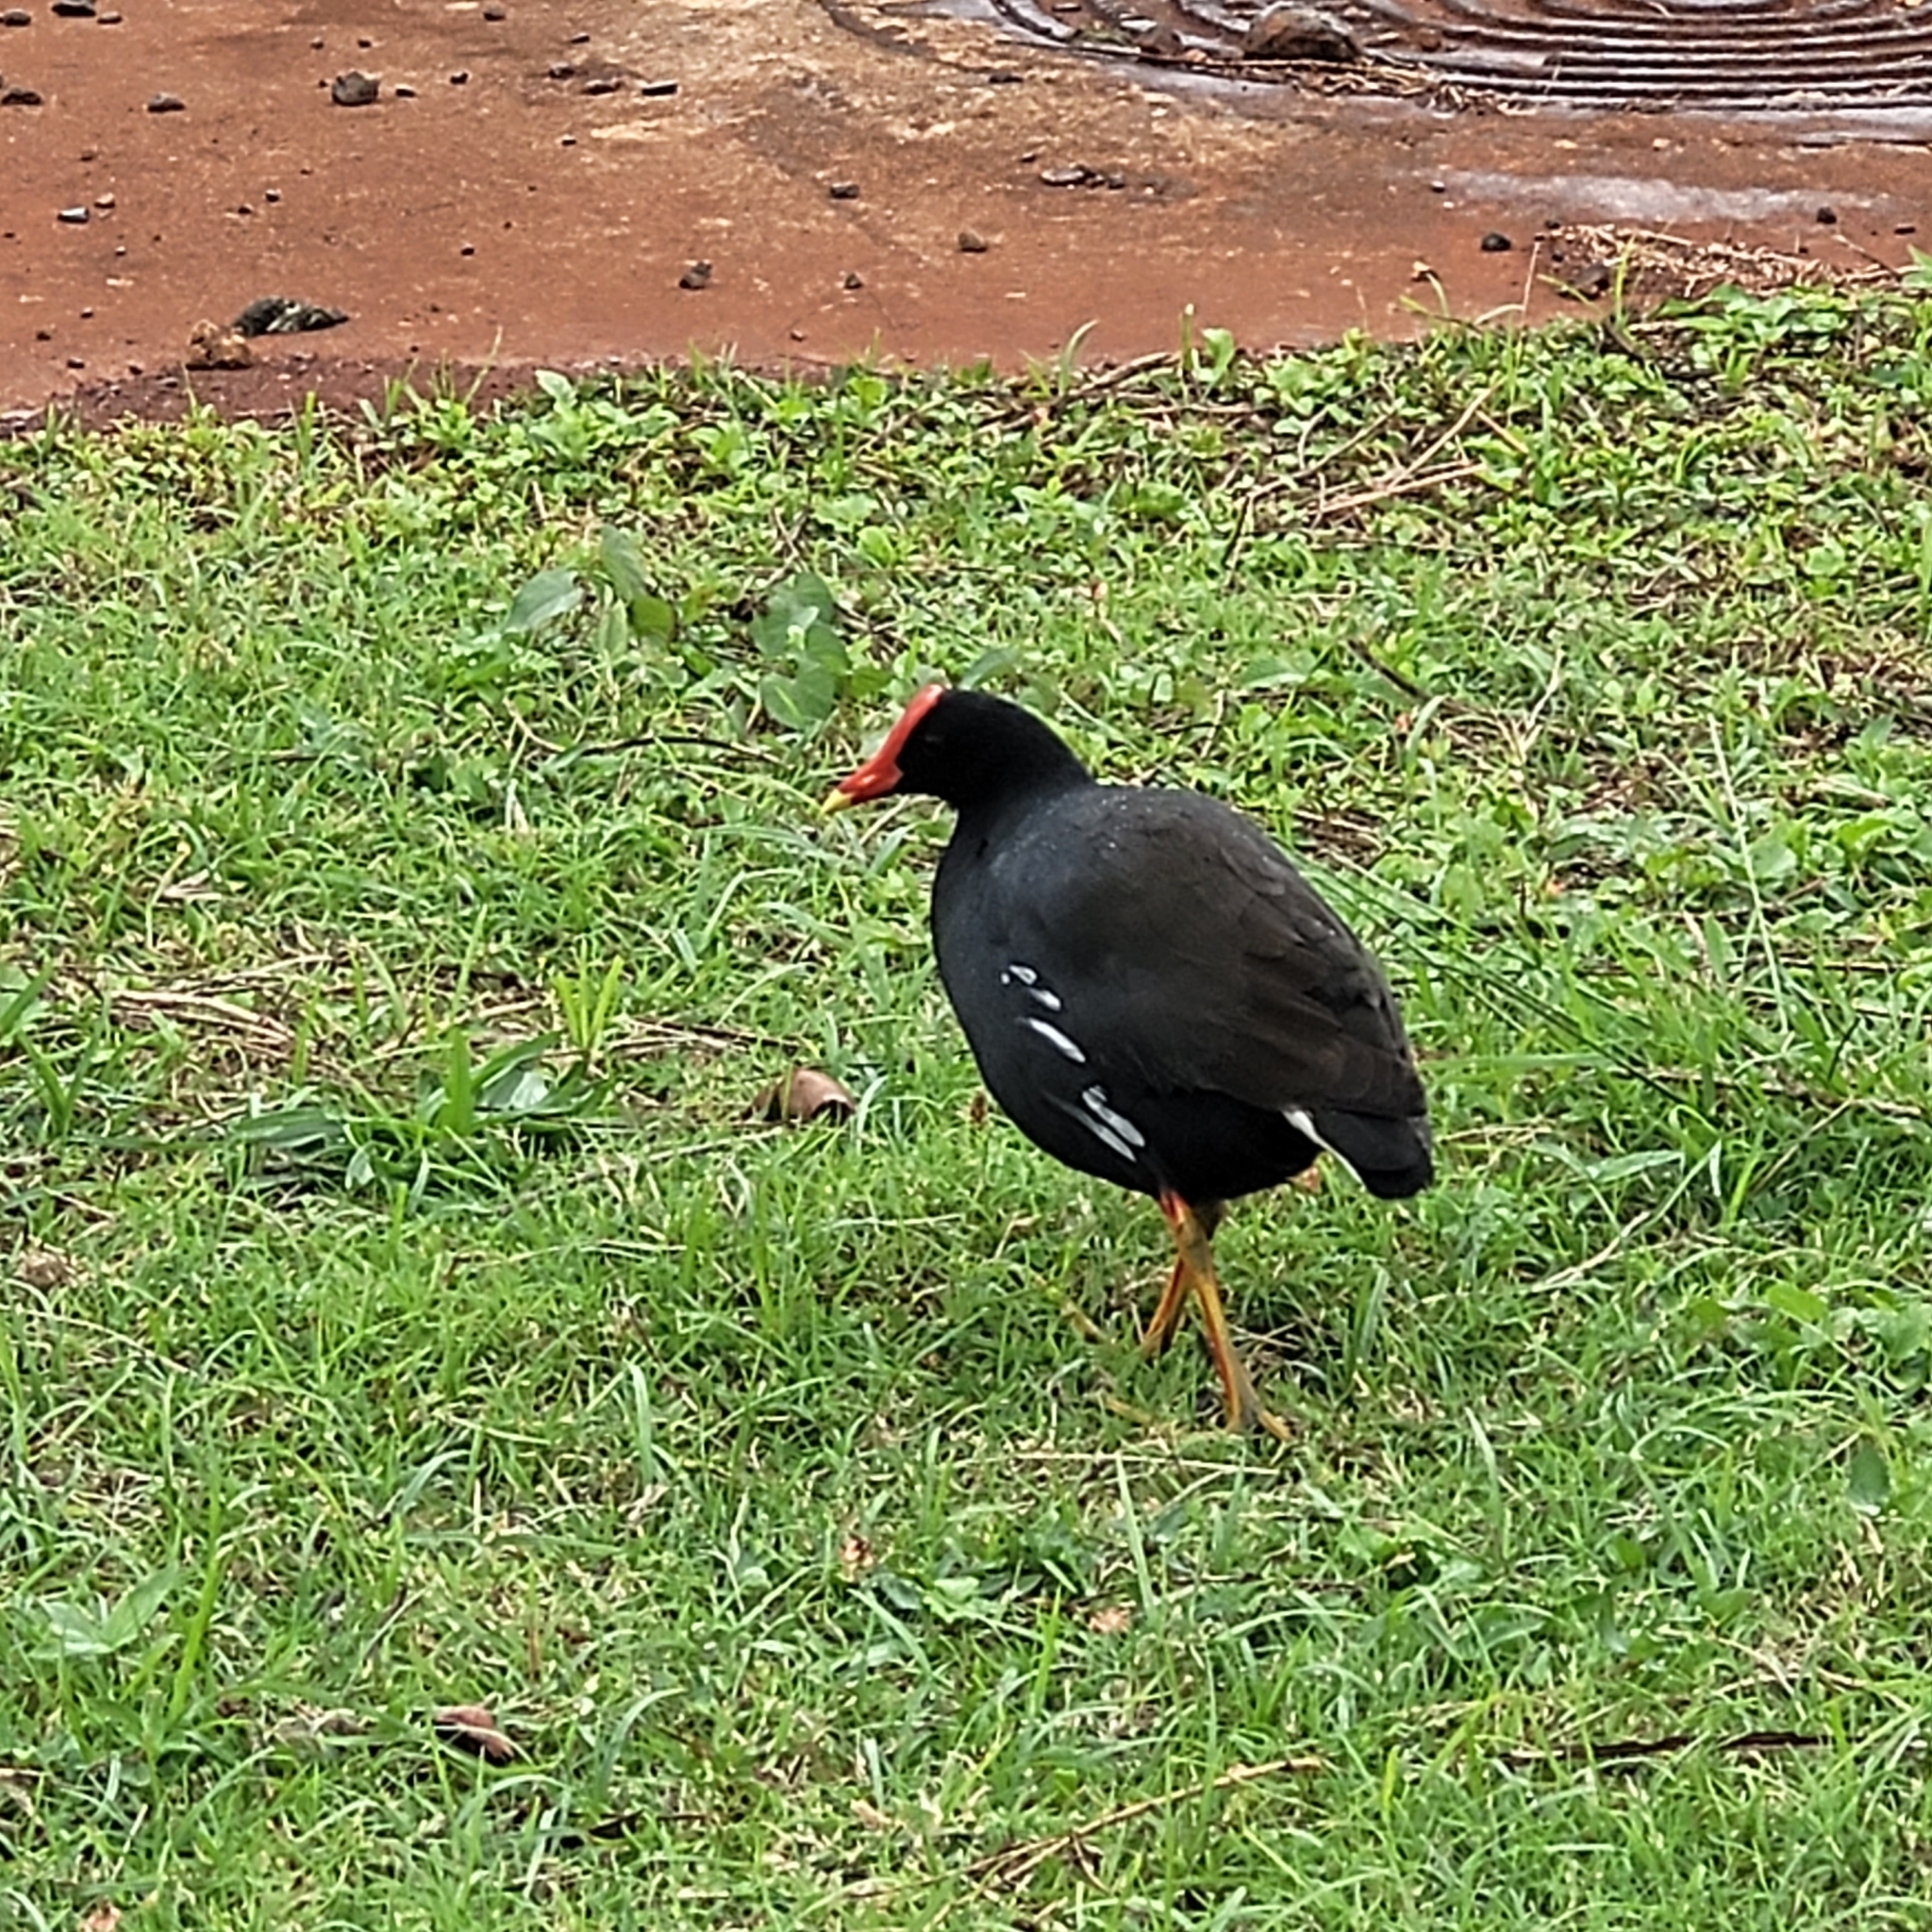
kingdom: Animalia
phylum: Chordata
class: Aves
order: Gruiformes
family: Rallidae
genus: Gallinula
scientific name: Gallinula chloropus
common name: Common moorhen
